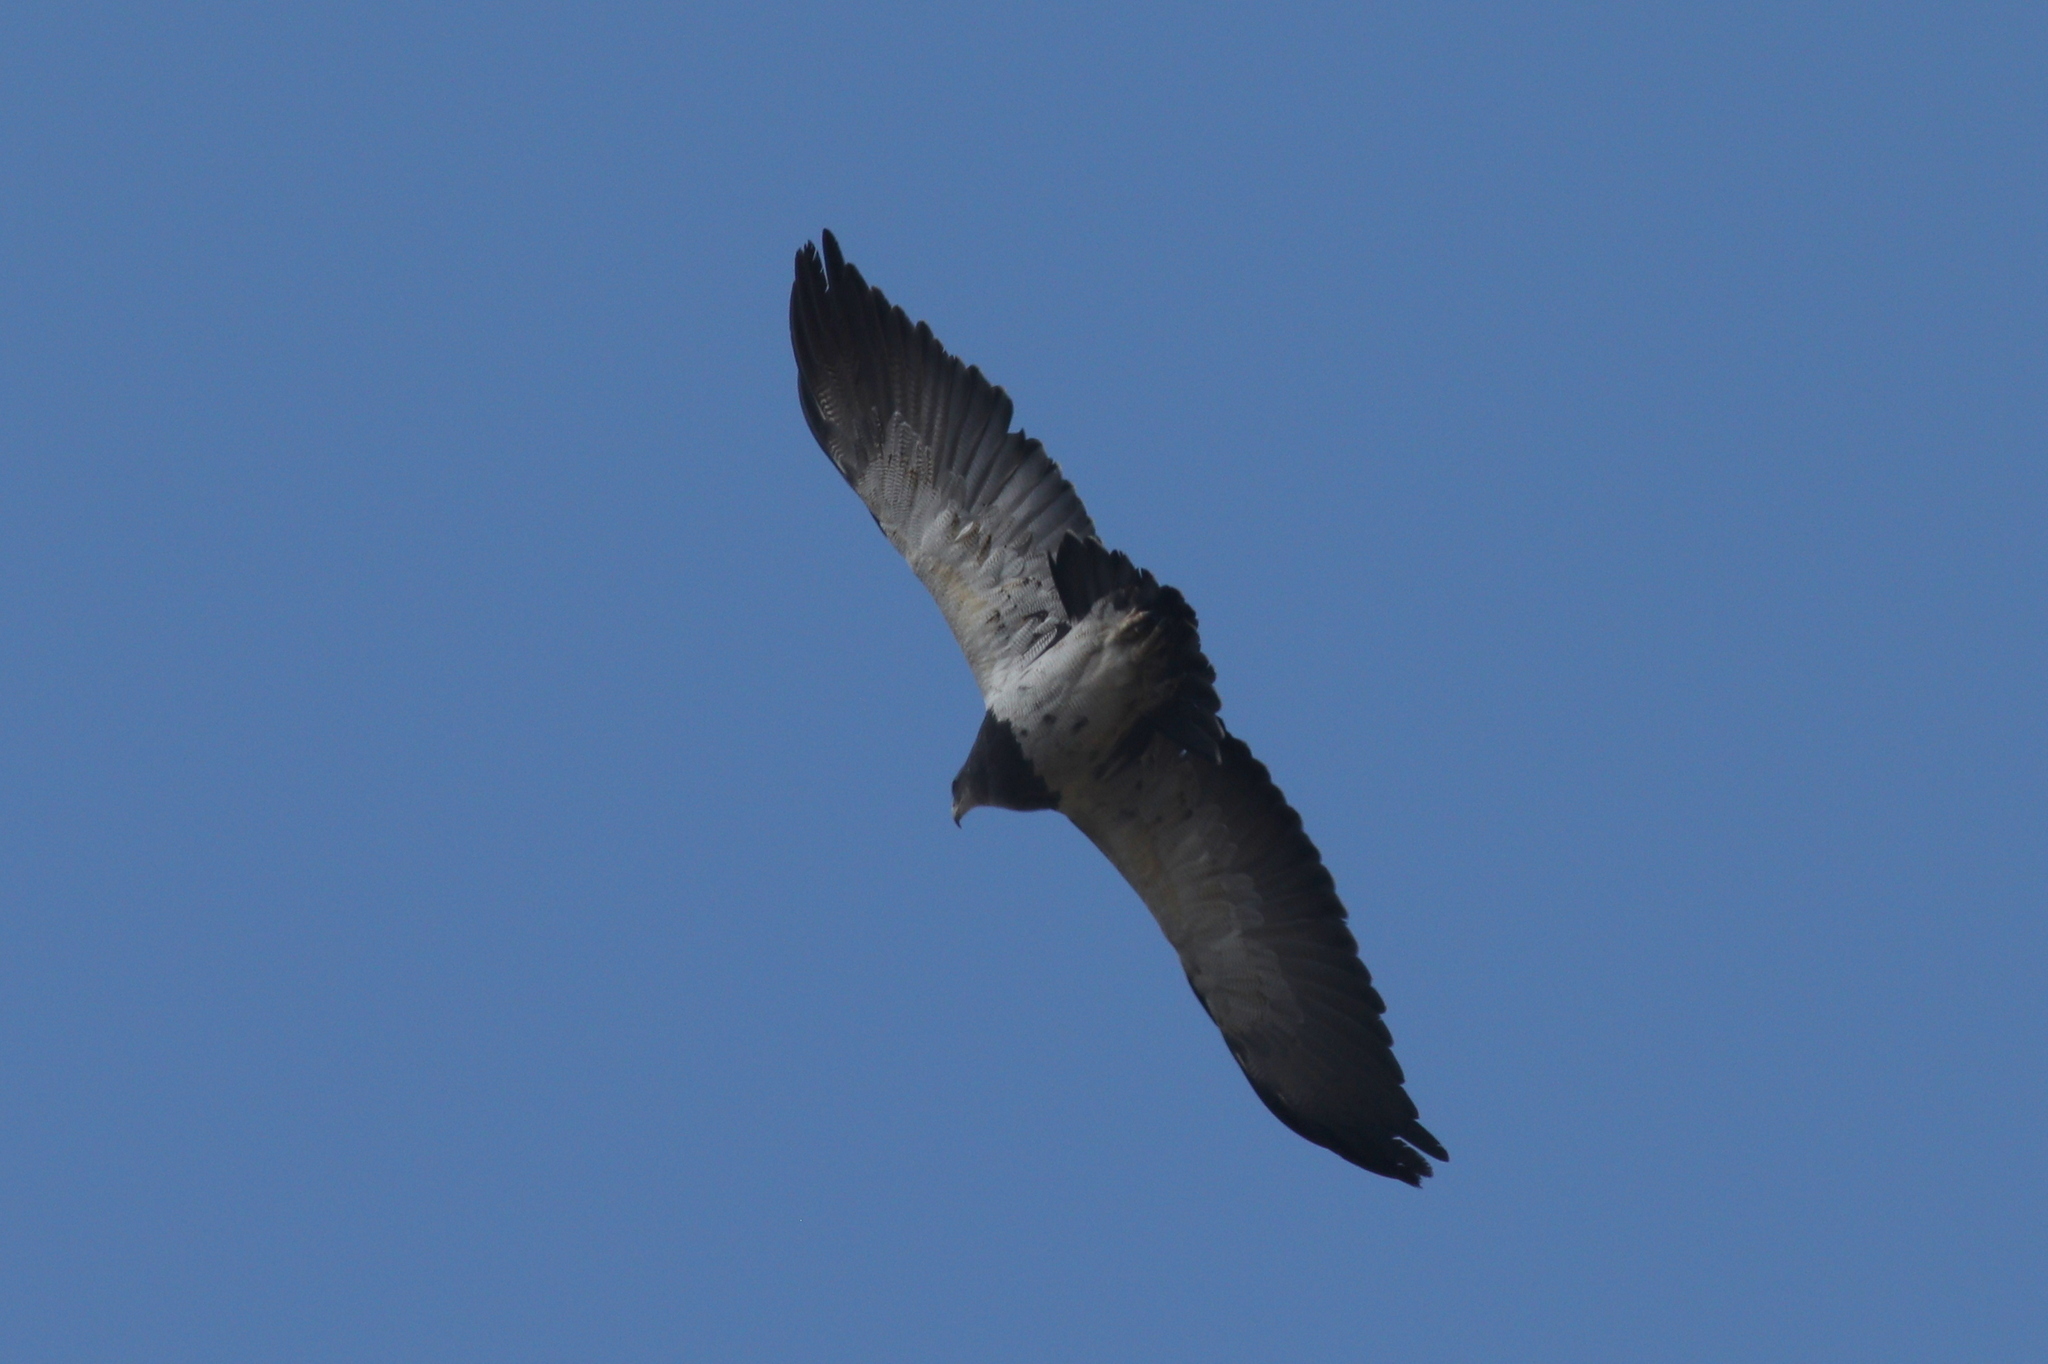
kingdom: Animalia
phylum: Chordata
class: Aves
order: Accipitriformes
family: Accipitridae
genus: Geranoaetus
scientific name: Geranoaetus melanoleucus
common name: Black-chested buzzard-eagle
